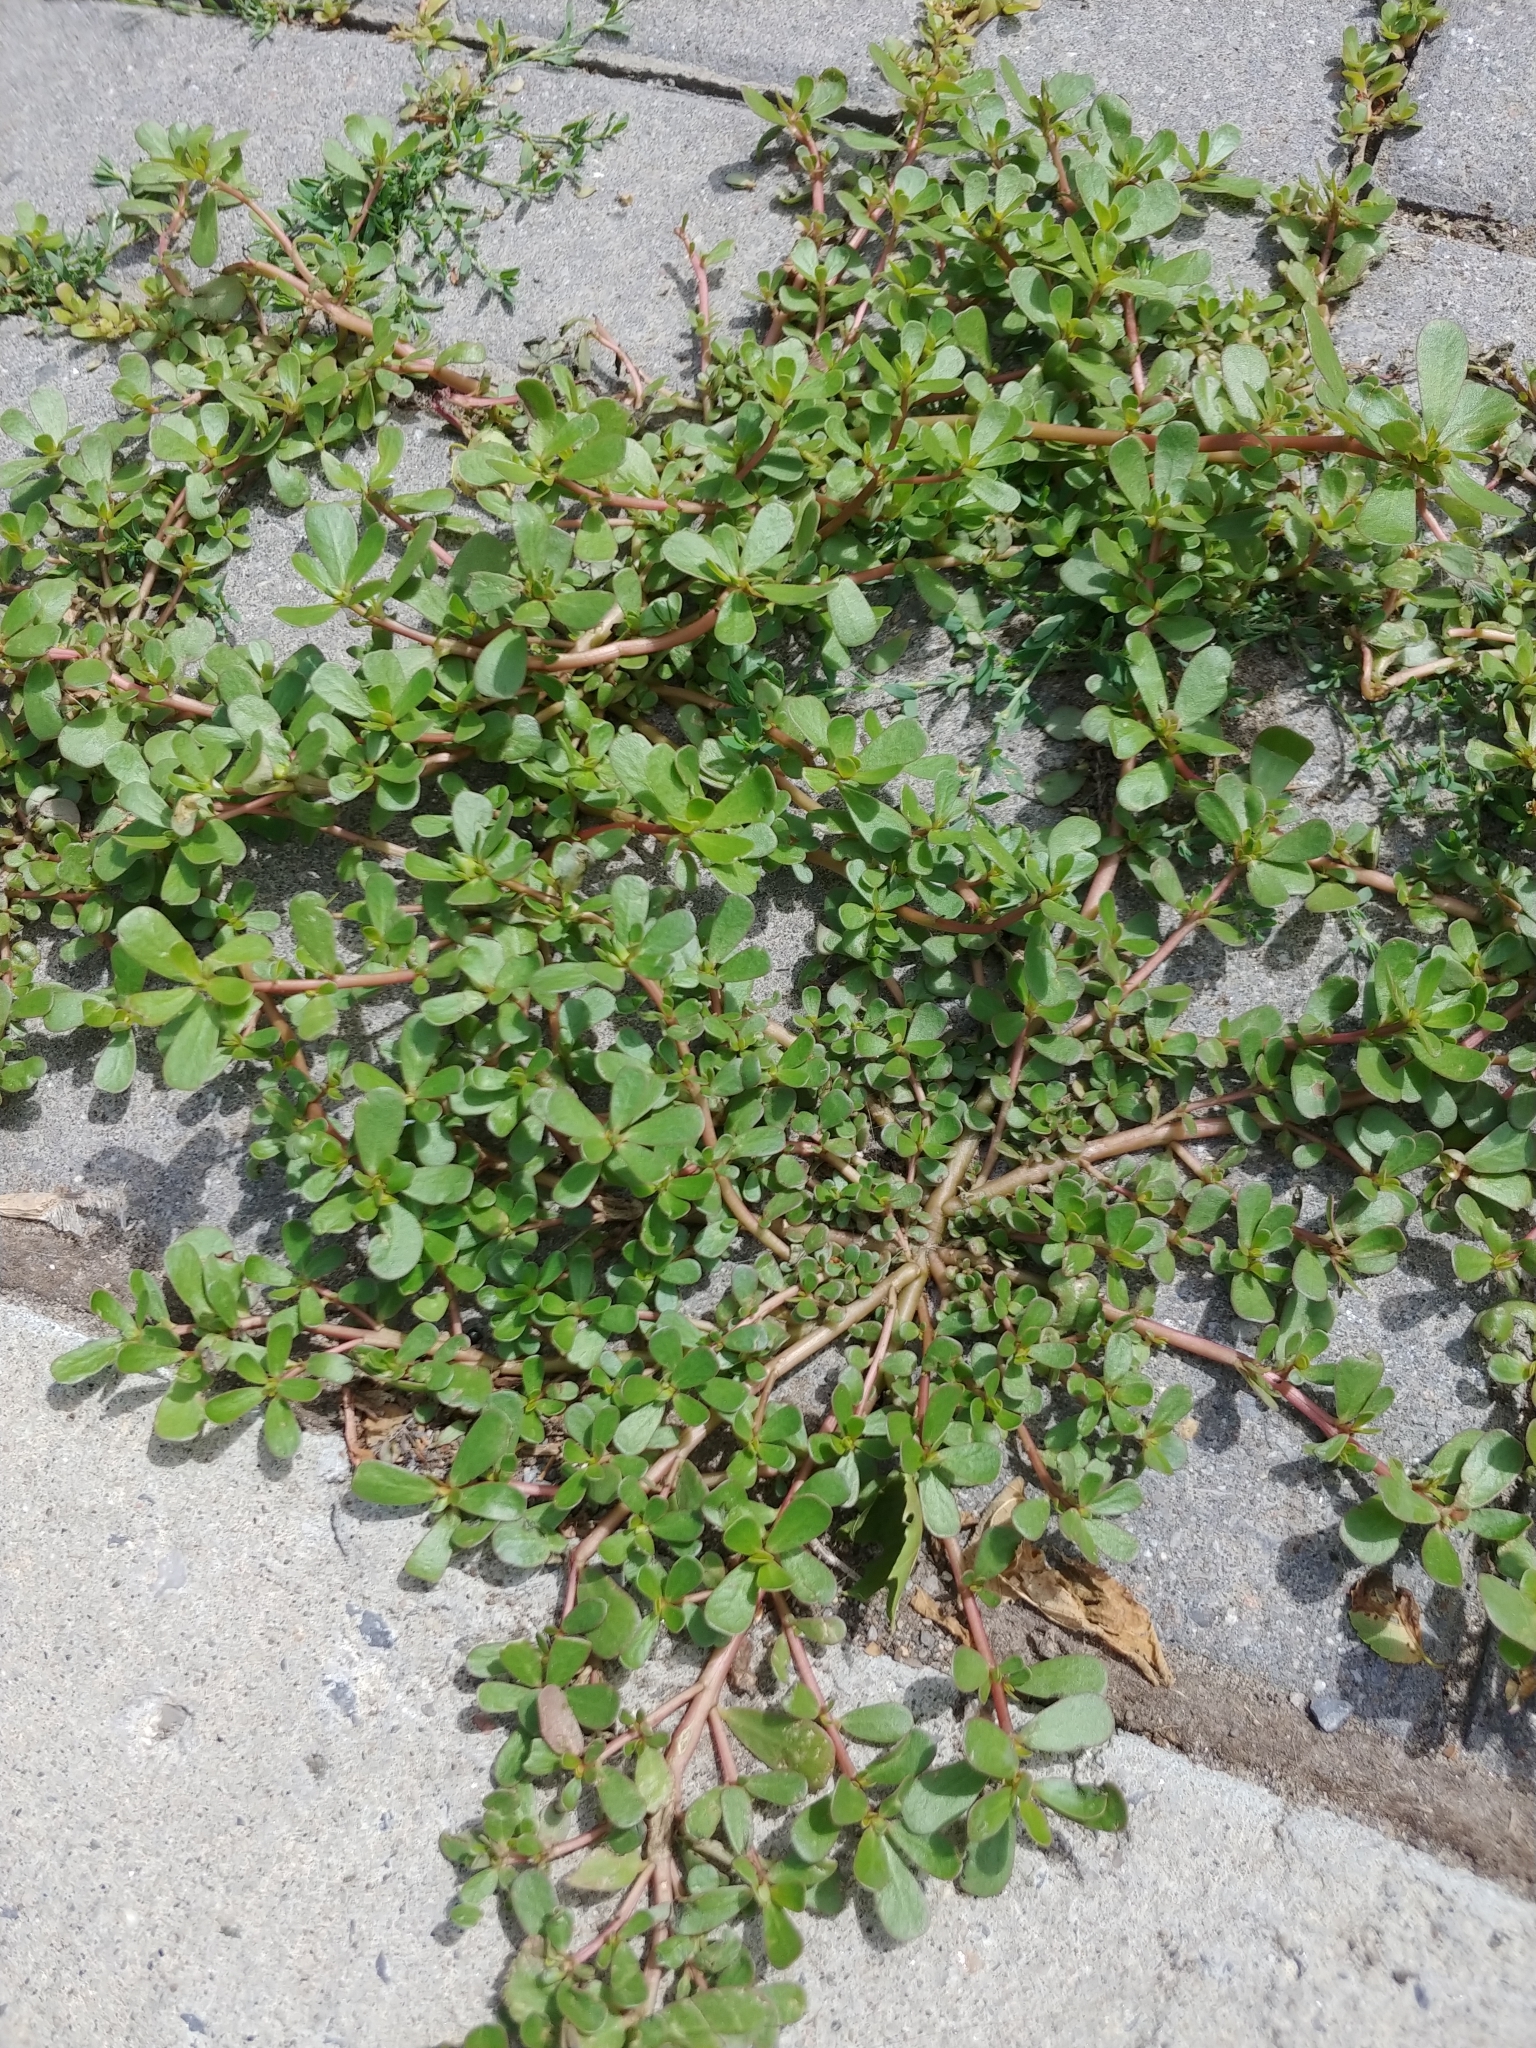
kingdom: Plantae
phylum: Tracheophyta
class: Magnoliopsida
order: Caryophyllales
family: Portulacaceae
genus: Portulaca
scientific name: Portulaca oleracea
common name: Common purslane
